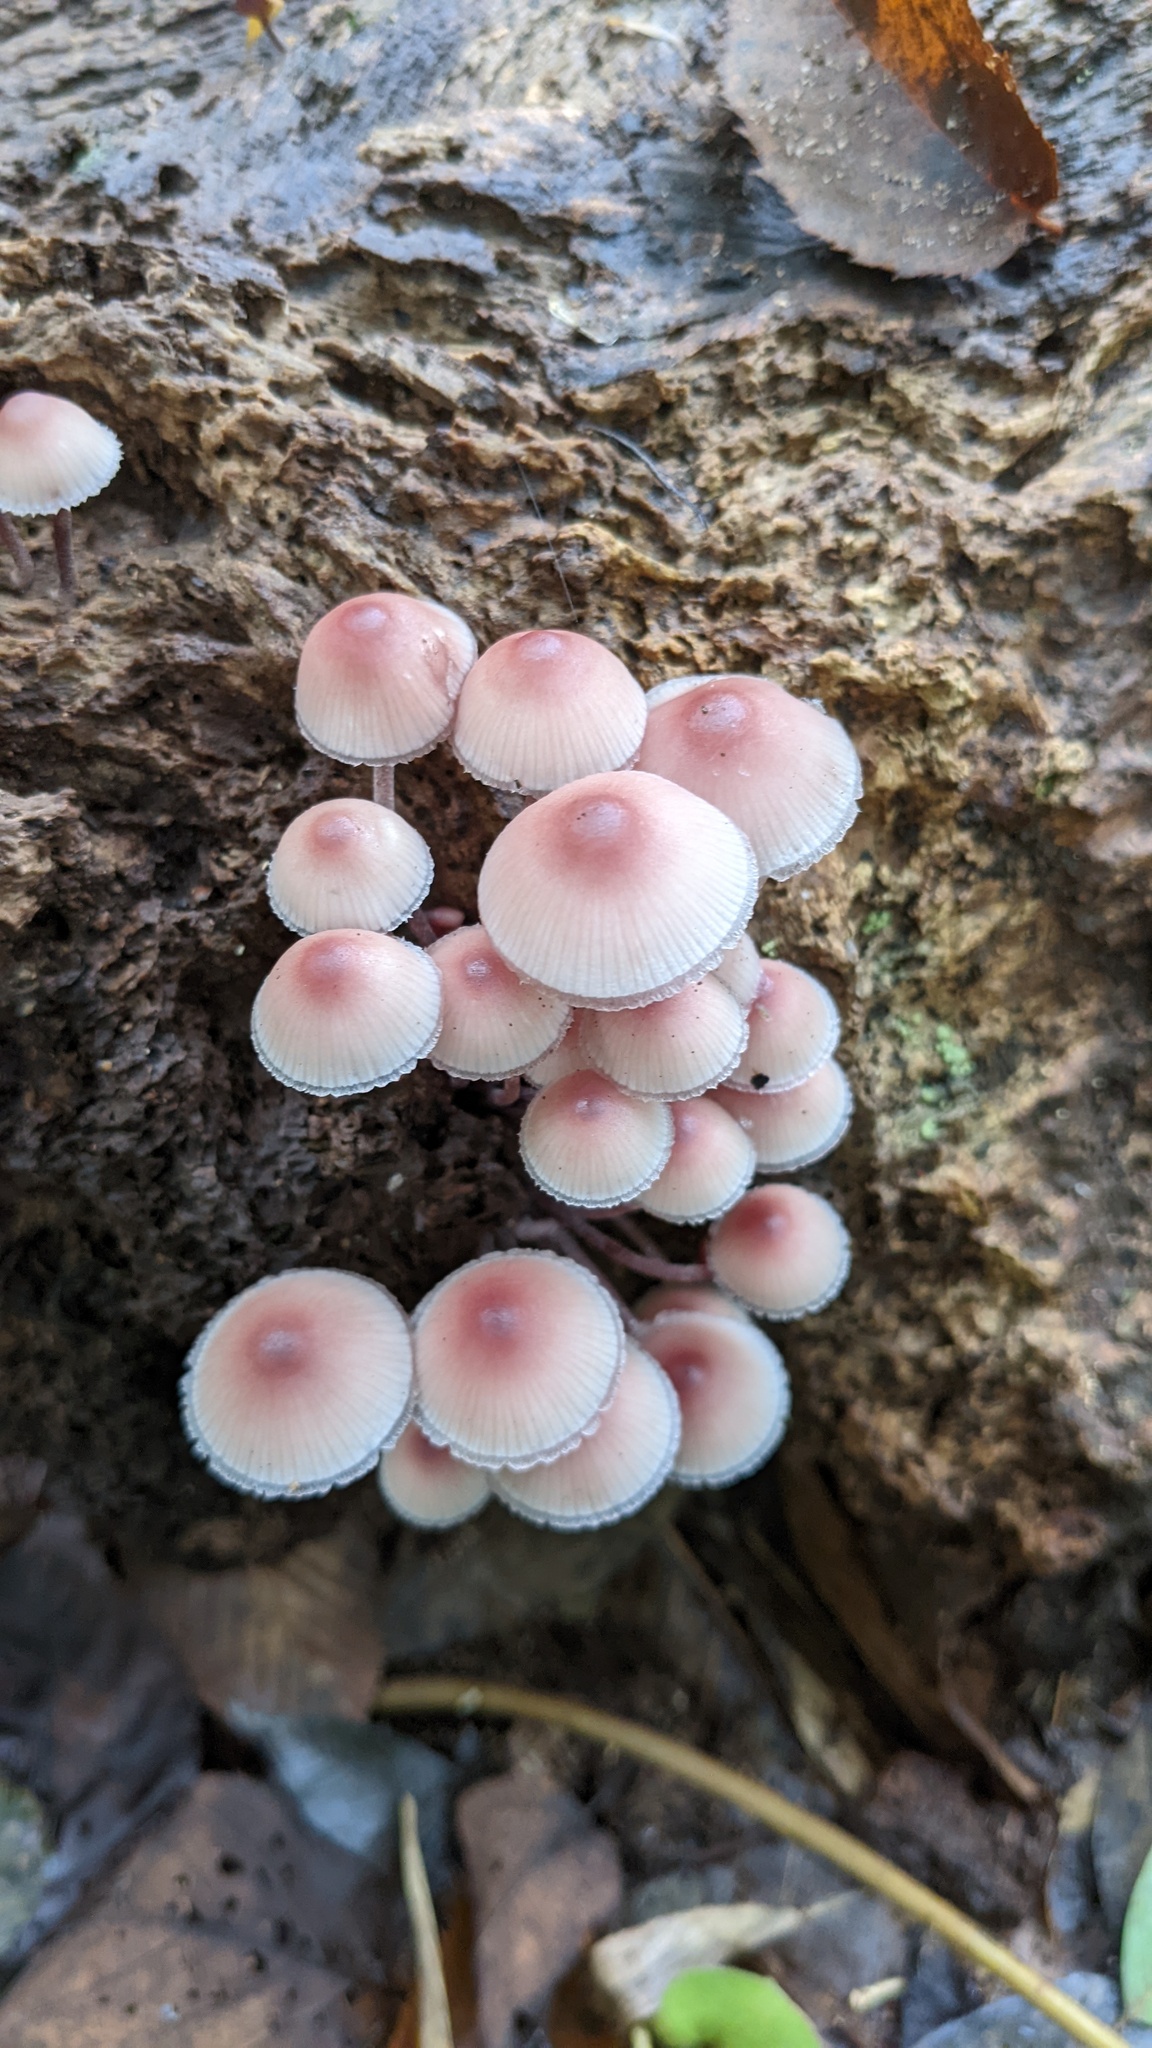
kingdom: Fungi
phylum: Basidiomycota
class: Agaricomycetes
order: Agaricales
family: Mycenaceae
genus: Mycena
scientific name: Mycena haematopus
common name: Burgundydrop bonnet
